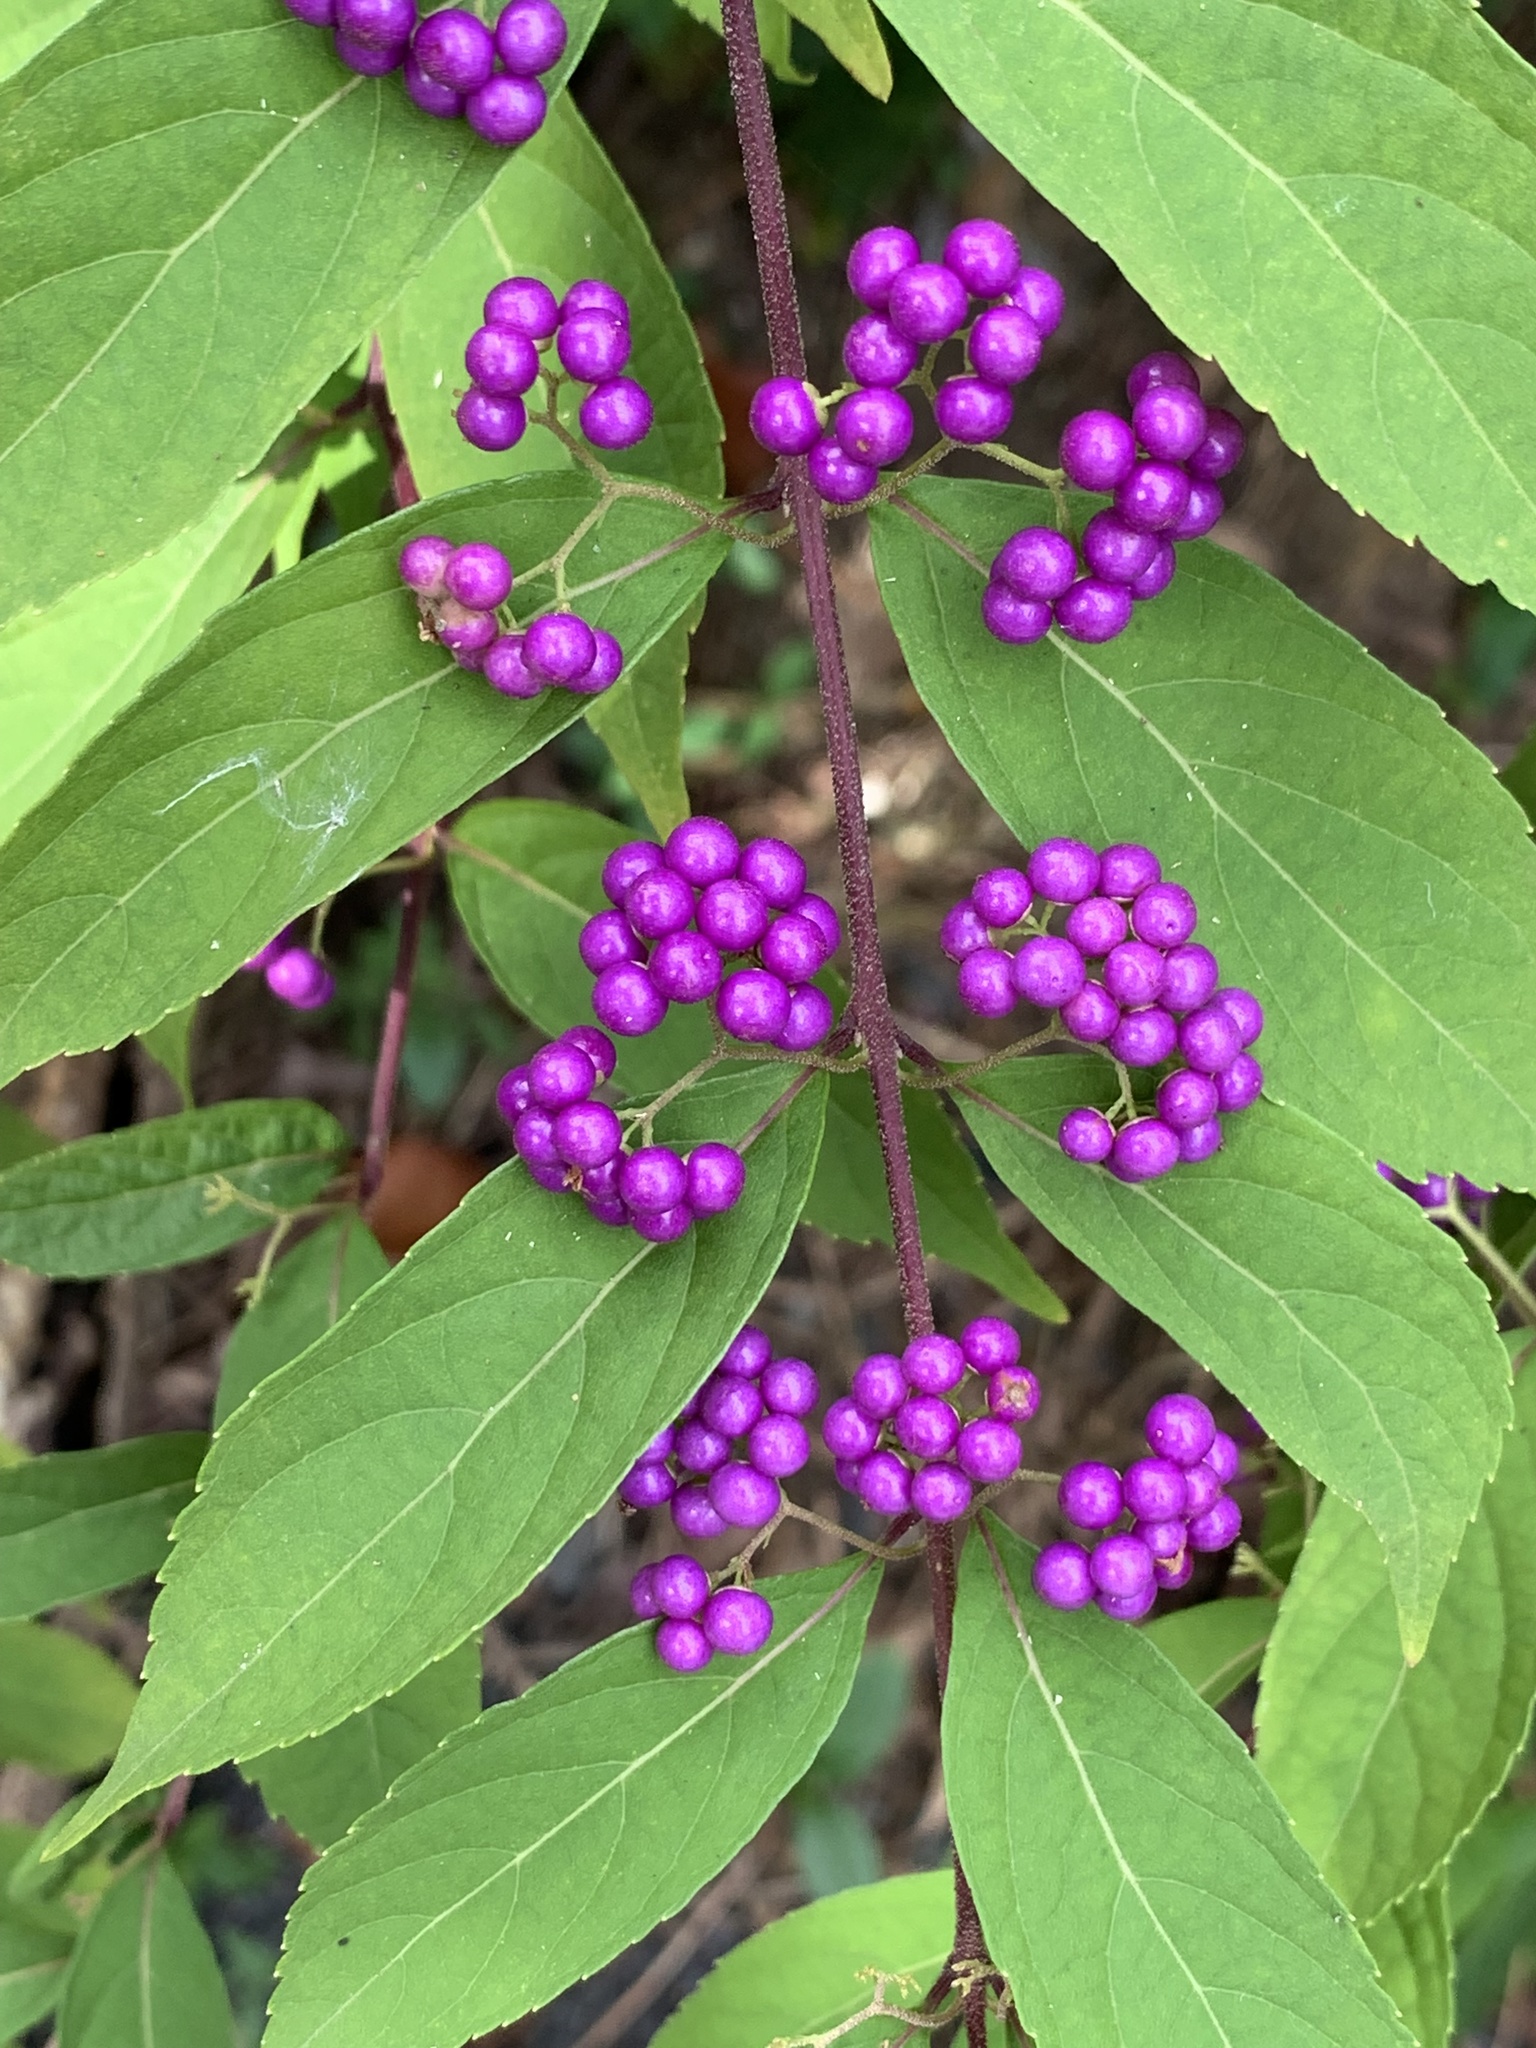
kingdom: Plantae
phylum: Tracheophyta
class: Magnoliopsida
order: Lamiales
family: Lamiaceae
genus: Callicarpa
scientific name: Callicarpa dichotoma
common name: Purple beauty-berry
